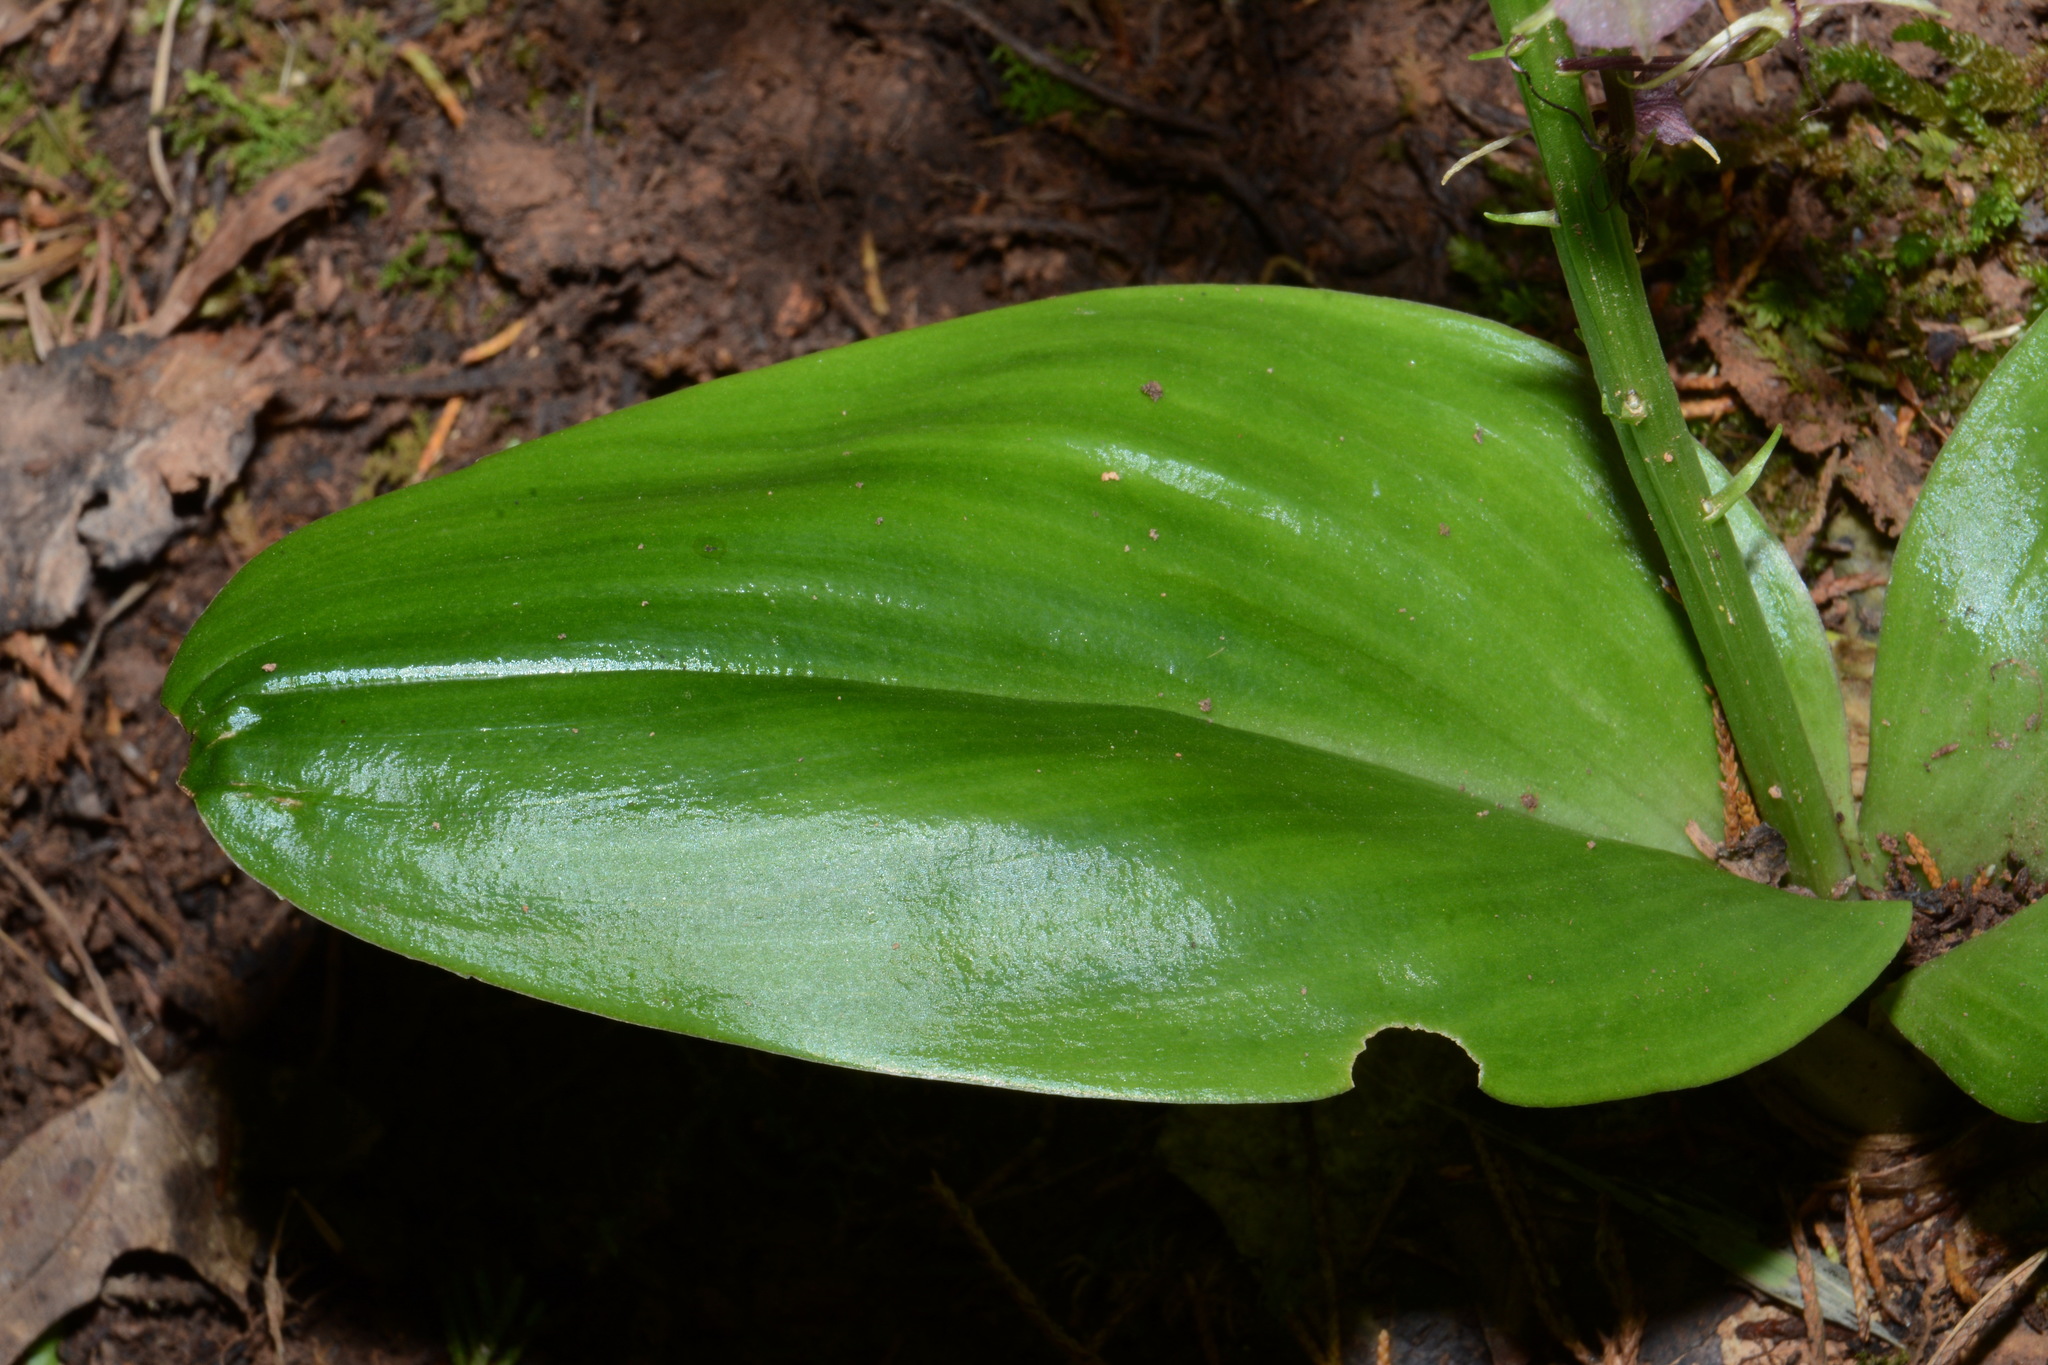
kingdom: Plantae
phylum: Tracheophyta
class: Liliopsida
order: Asparagales
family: Orchidaceae
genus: Liparis
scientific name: Liparis liliifolia
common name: Brown wide-lip orchid
